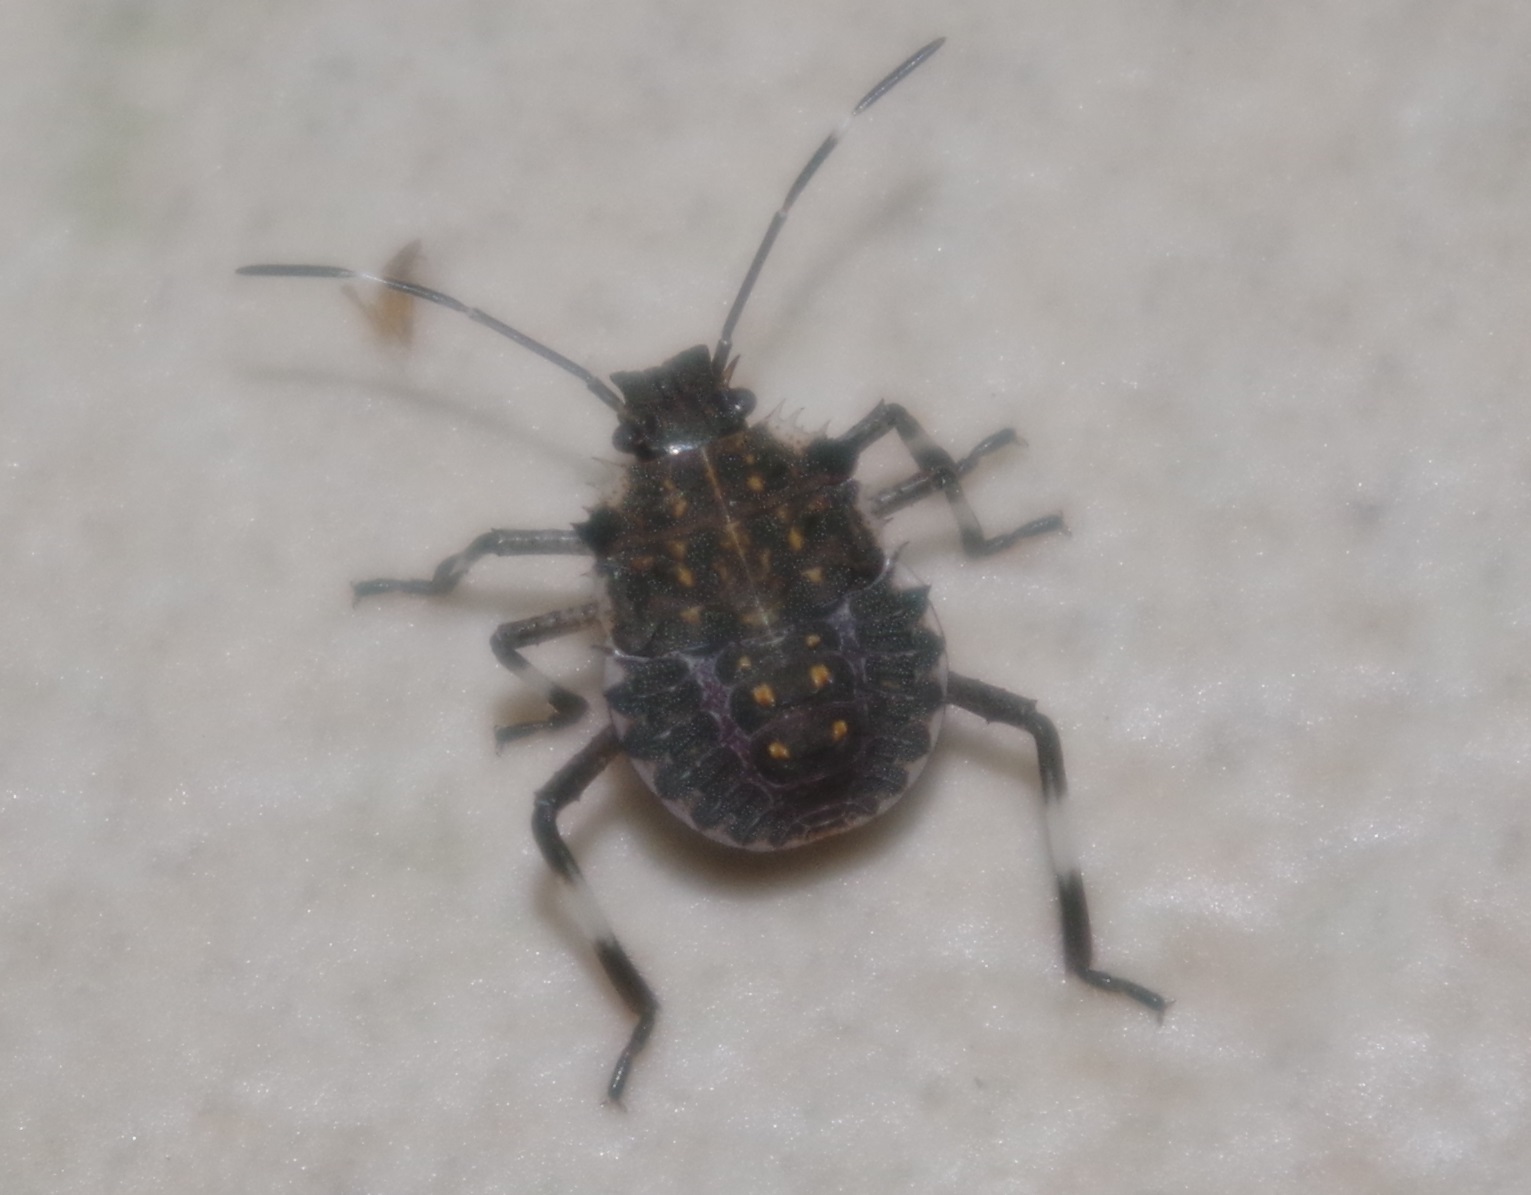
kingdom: Animalia
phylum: Arthropoda
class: Insecta
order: Hemiptera
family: Pentatomidae
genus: Halyomorpha
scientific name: Halyomorpha halys
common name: Brown marmorated stink bug
